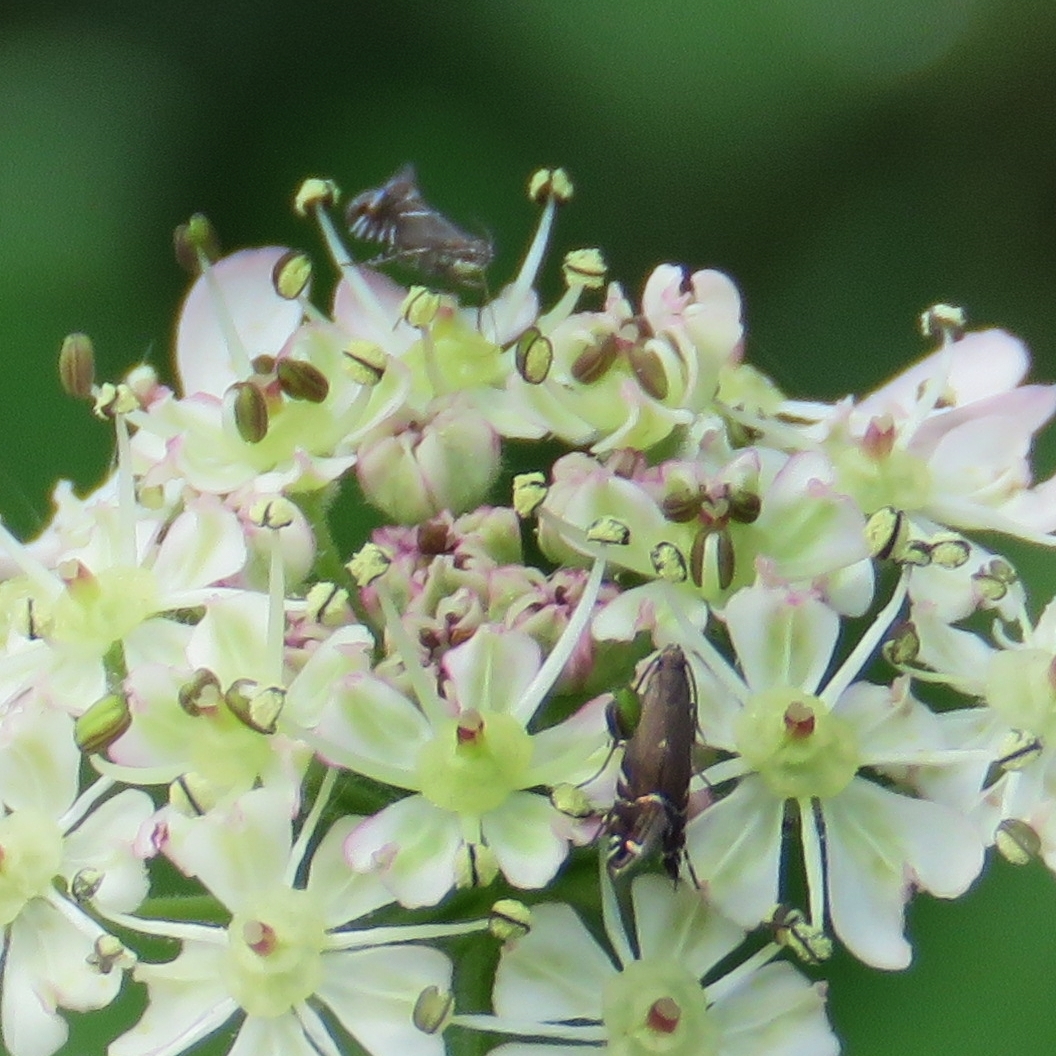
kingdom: Animalia
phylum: Arthropoda
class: Insecta
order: Lepidoptera
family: Glyphipterigidae
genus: Glyphipterix
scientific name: Glyphipterix simpliciella
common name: Cocksfoot moth
